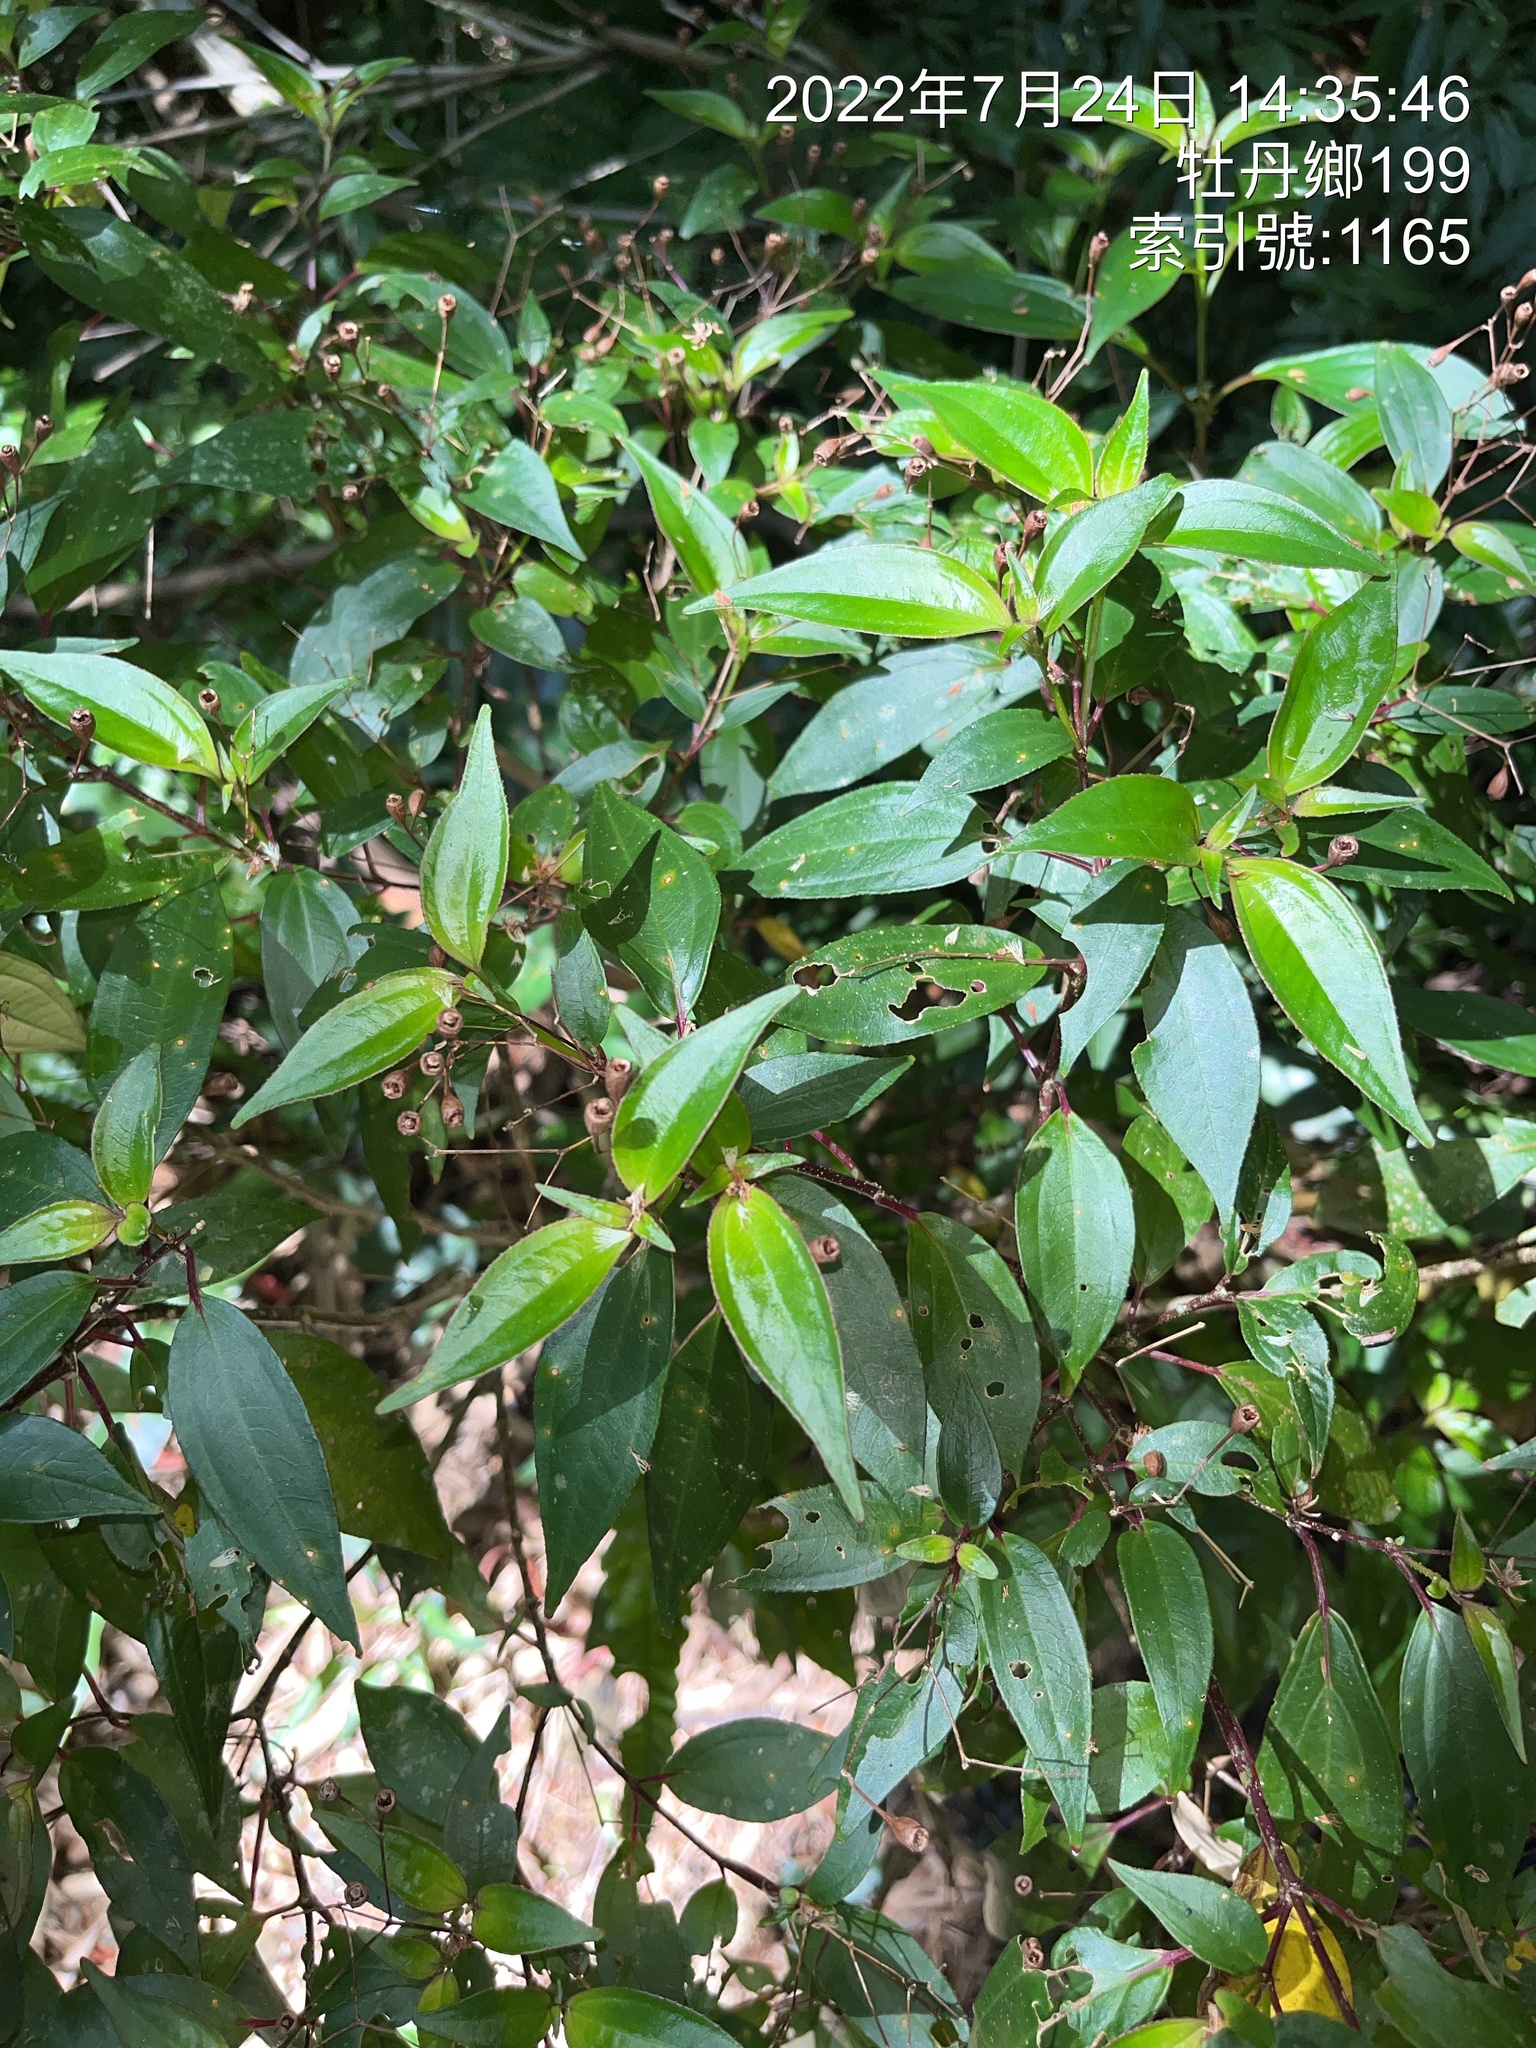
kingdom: Plantae
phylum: Tracheophyta
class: Magnoliopsida
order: Myrtales
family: Melastomataceae
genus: Bredia
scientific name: Bredia oldhamii
